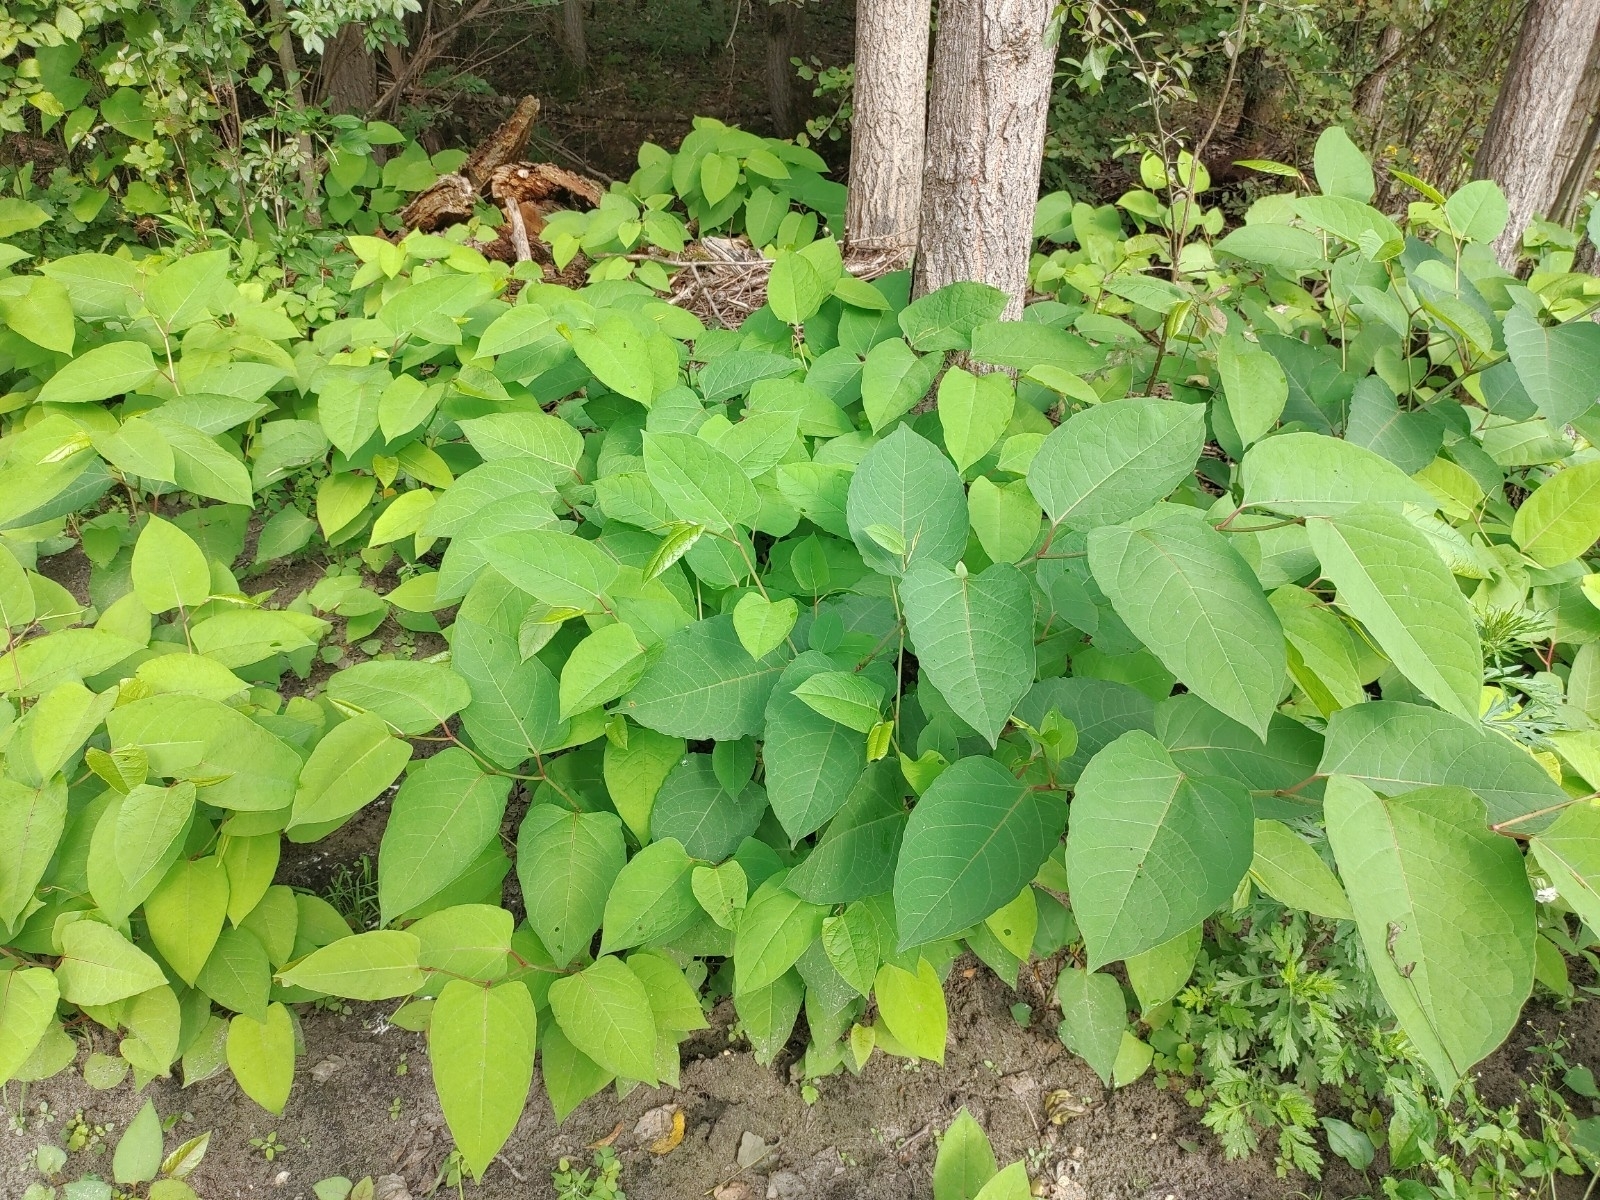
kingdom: Plantae
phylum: Tracheophyta
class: Magnoliopsida
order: Caryophyllales
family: Polygonaceae
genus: Reynoutria
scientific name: Reynoutria bohemica
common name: Bohemian knotweed
